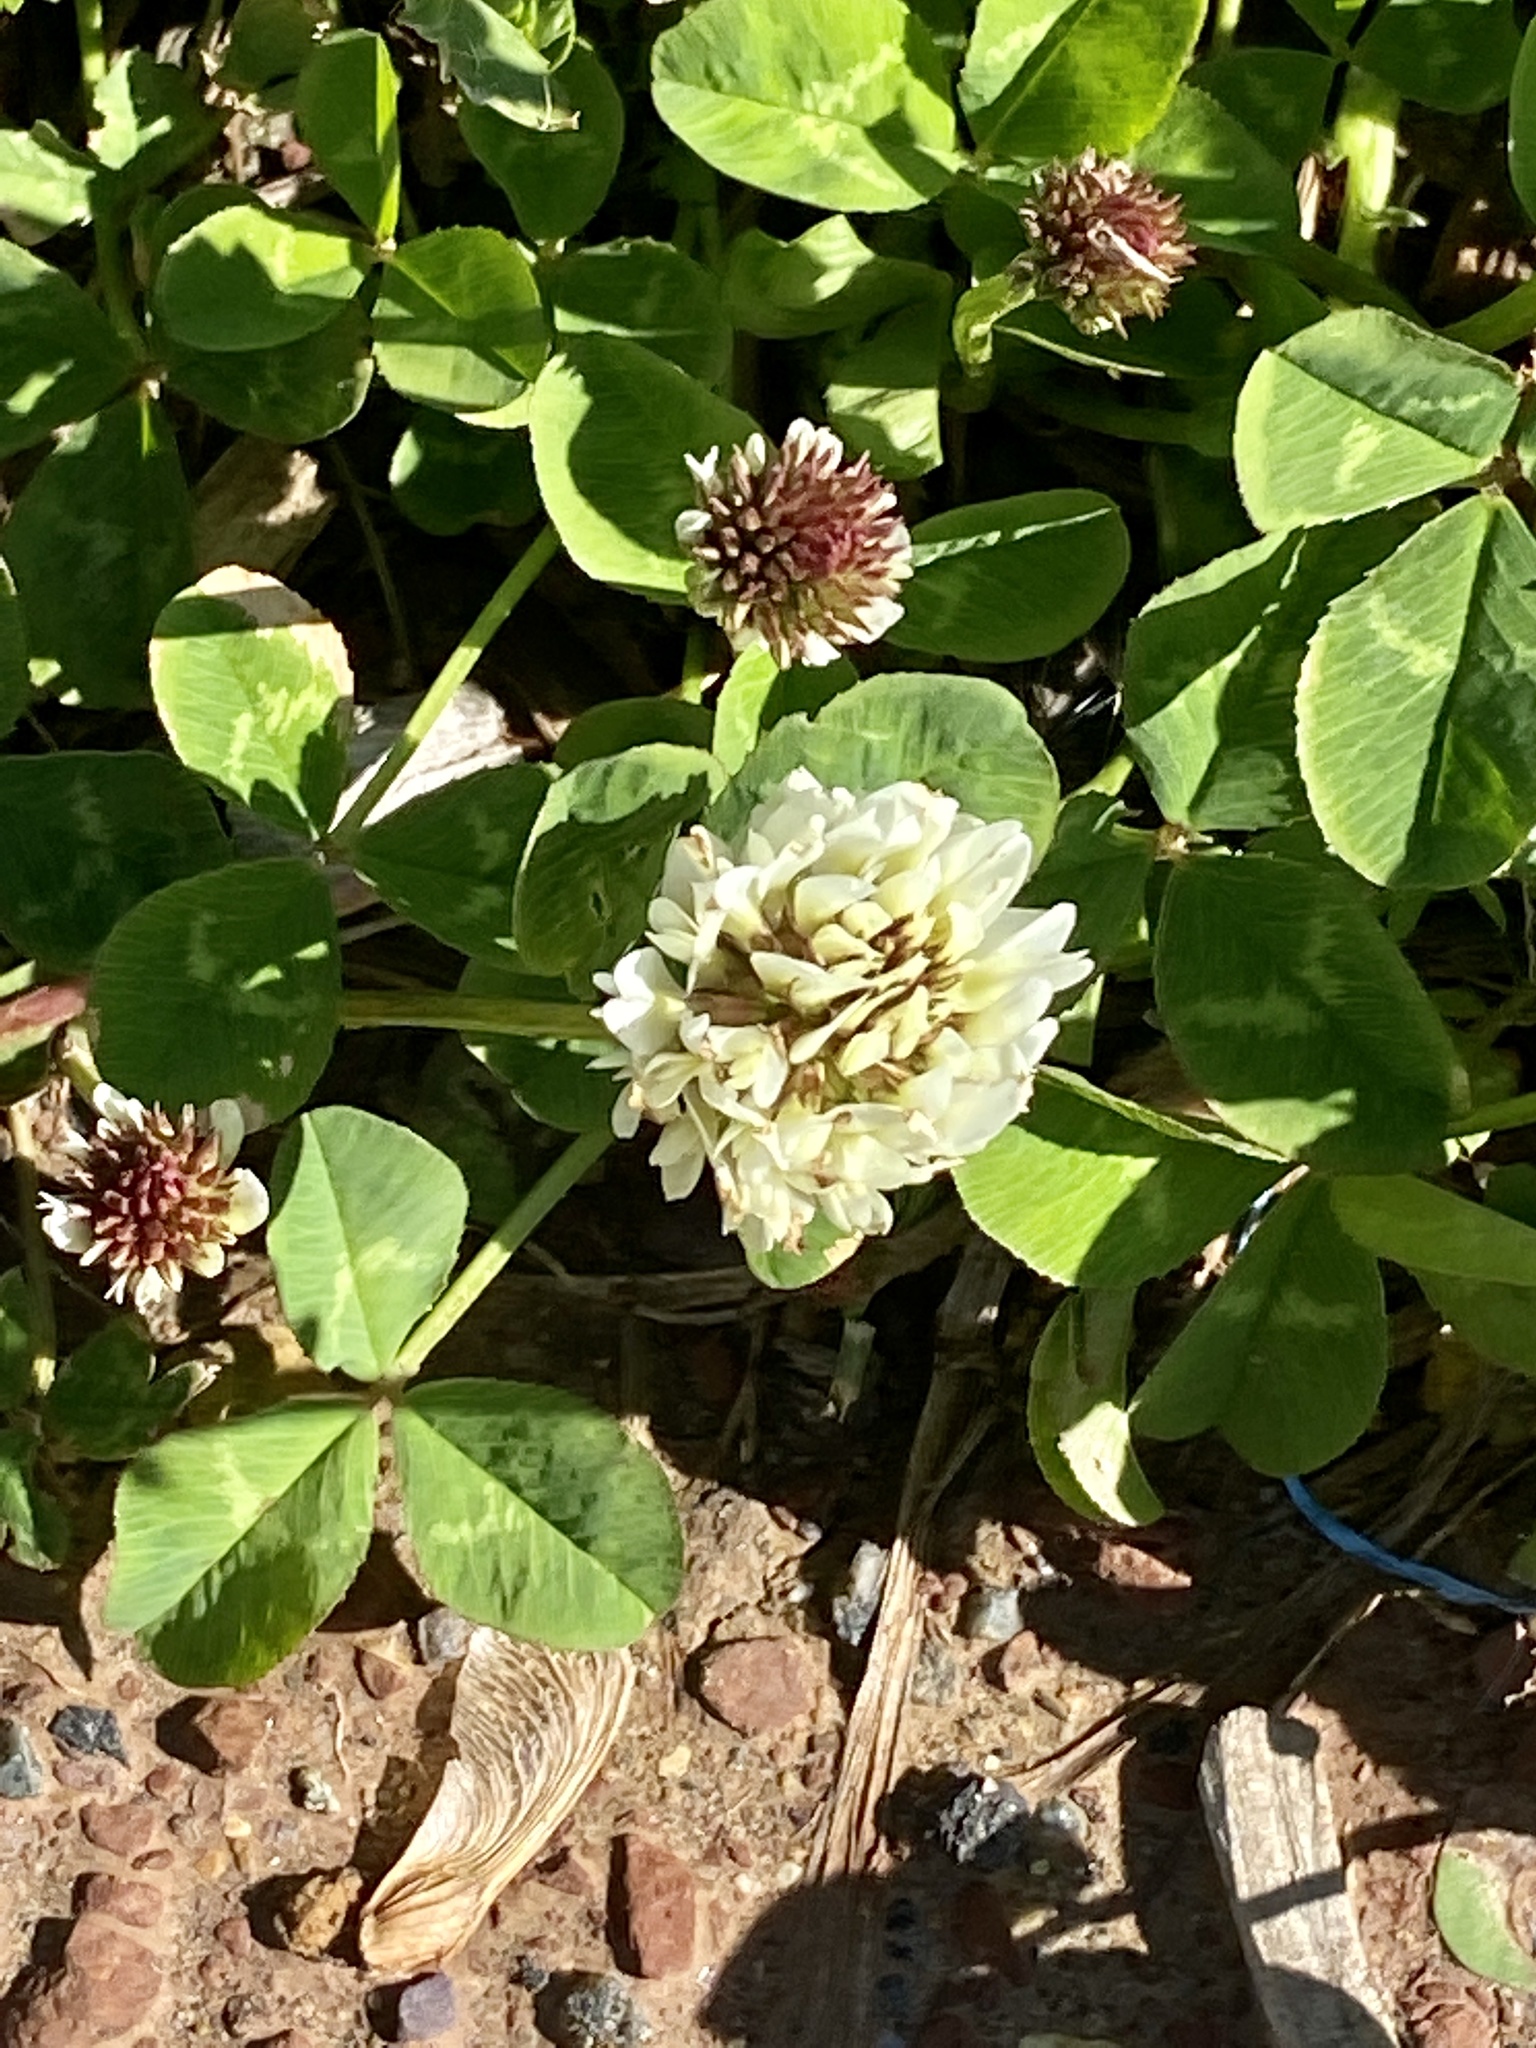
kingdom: Plantae
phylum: Tracheophyta
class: Magnoliopsida
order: Fabales
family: Fabaceae
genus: Trifolium
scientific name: Trifolium repens
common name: White clover
